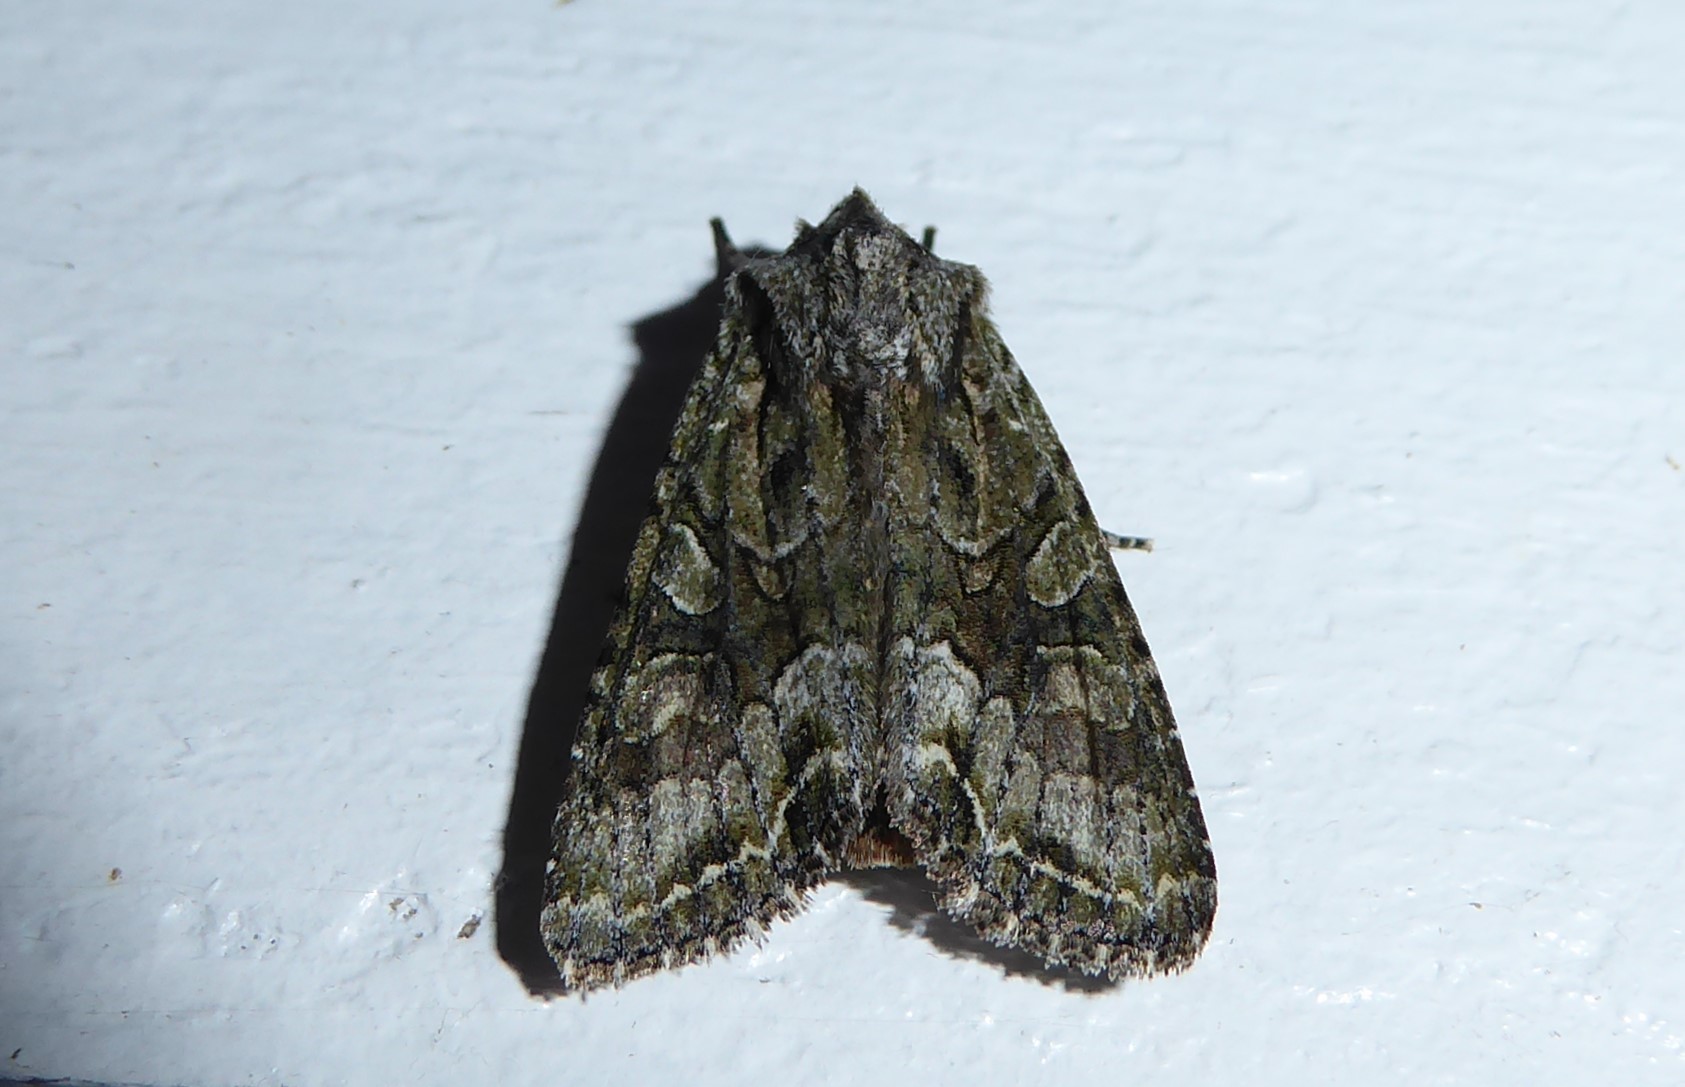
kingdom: Animalia
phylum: Arthropoda
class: Insecta
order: Lepidoptera
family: Noctuidae
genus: Ichneutica
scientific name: Ichneutica mutans
